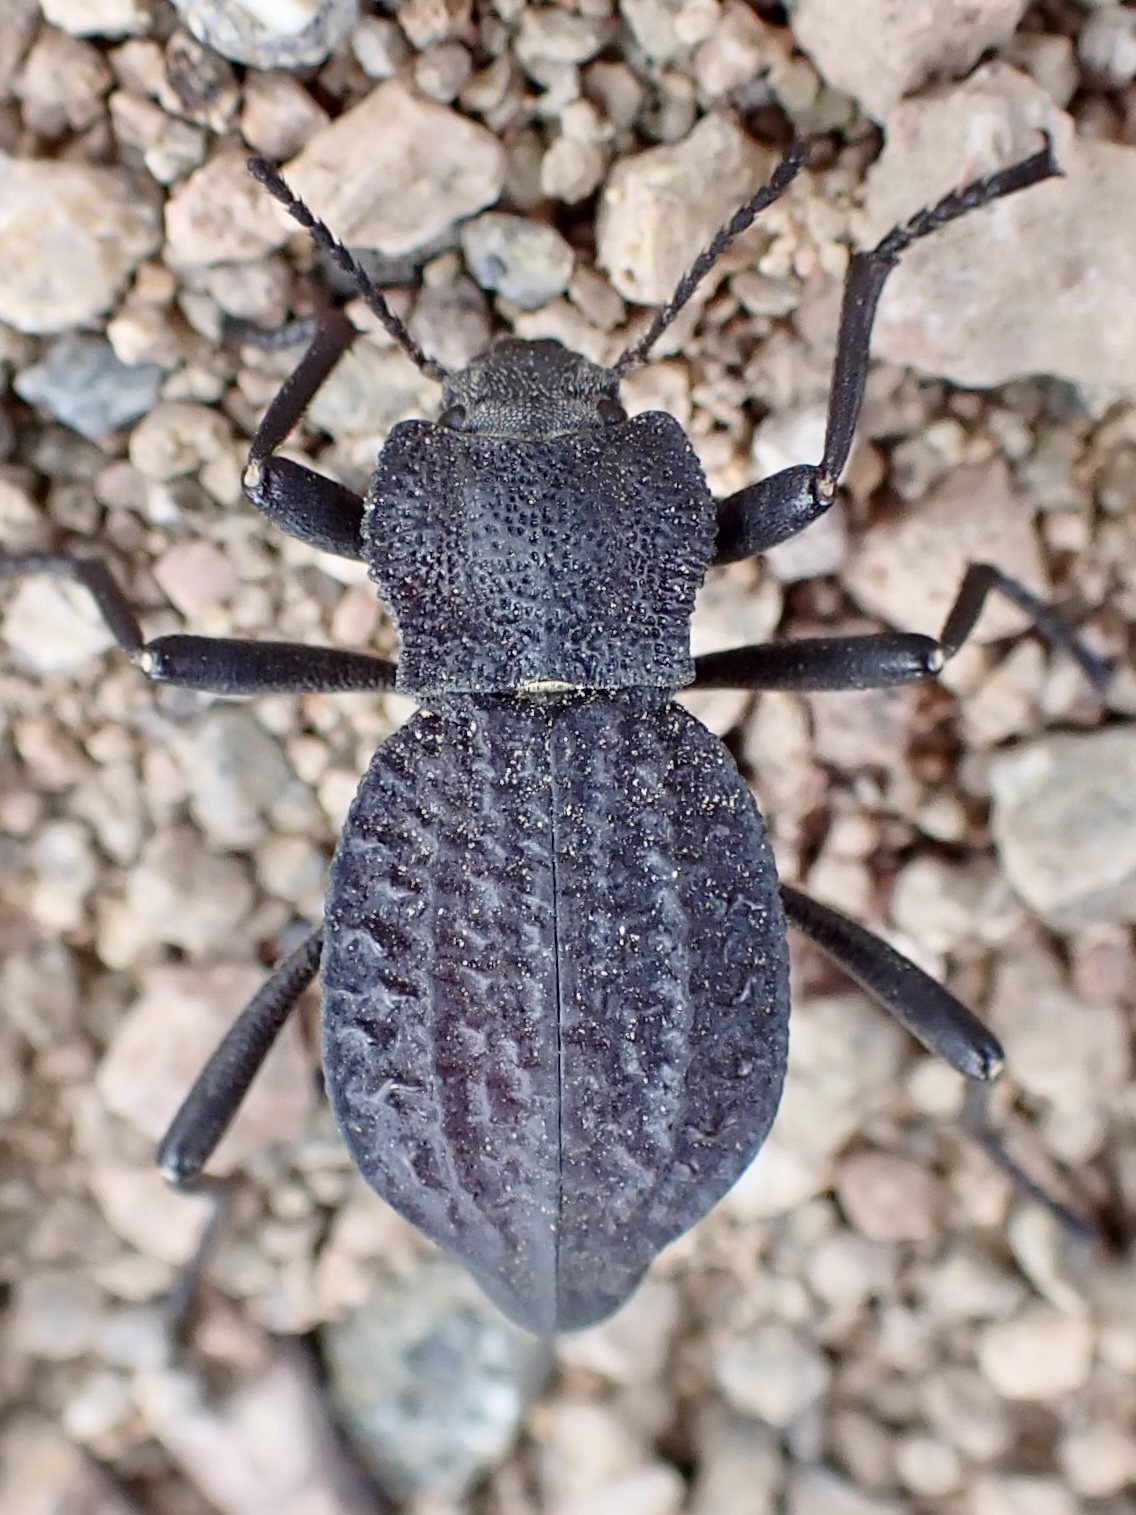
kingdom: Animalia
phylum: Arthropoda
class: Insecta
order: Coleoptera
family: Tenebrionidae
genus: Philolithus
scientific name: Philolithus morbillosus
